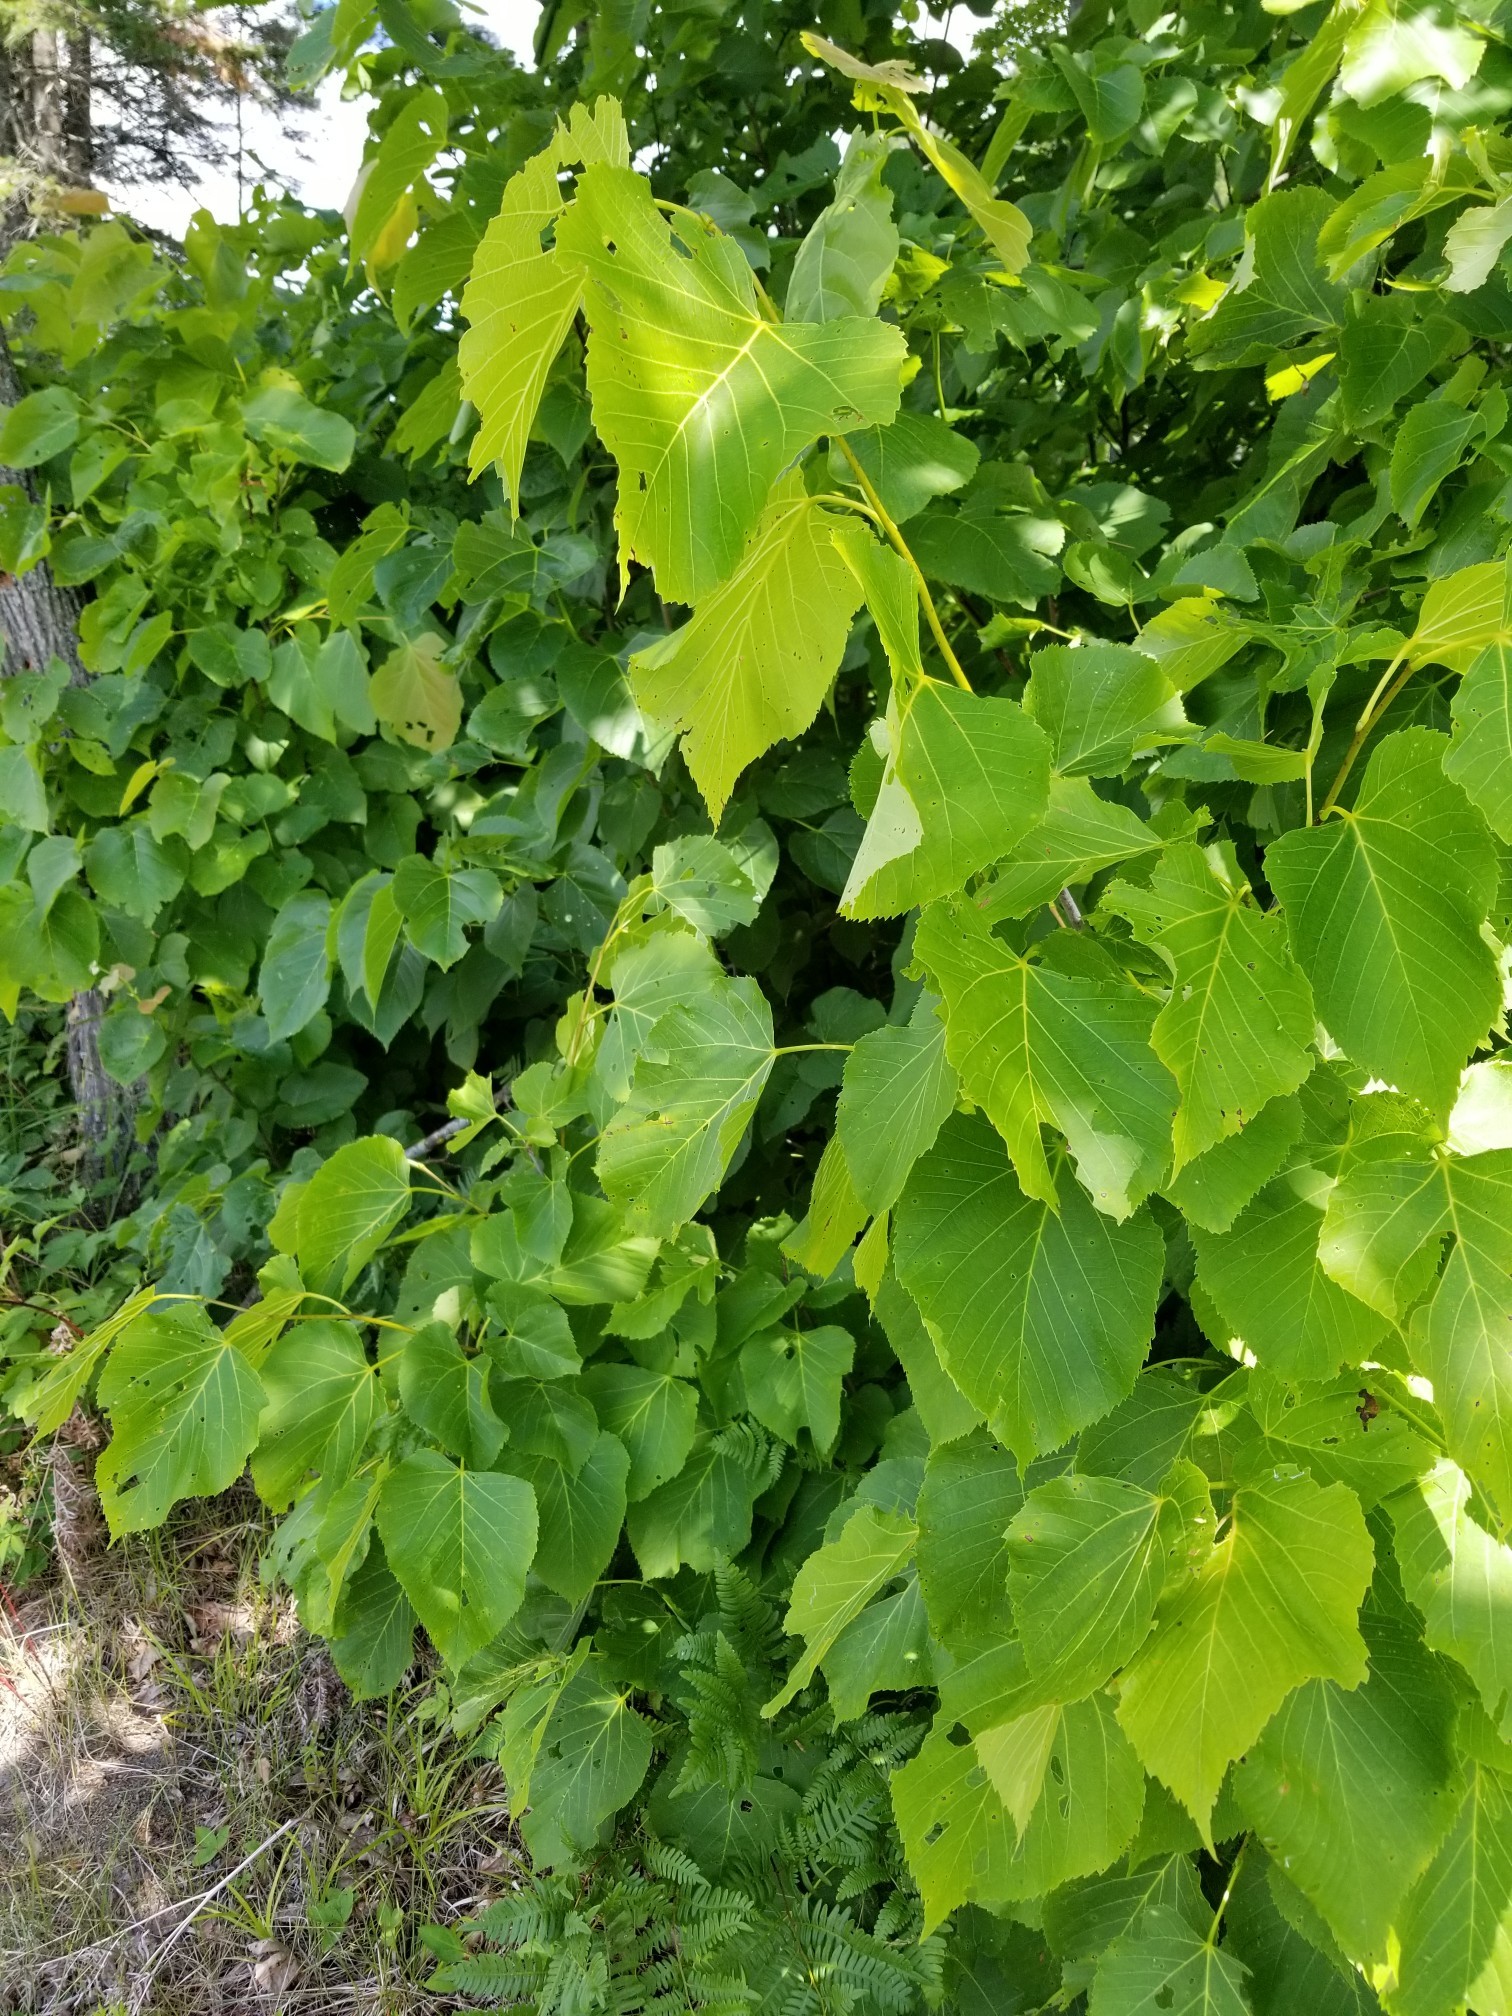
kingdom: Plantae
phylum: Tracheophyta
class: Magnoliopsida
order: Malvales
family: Malvaceae
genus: Tilia
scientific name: Tilia americana
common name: Basswood
